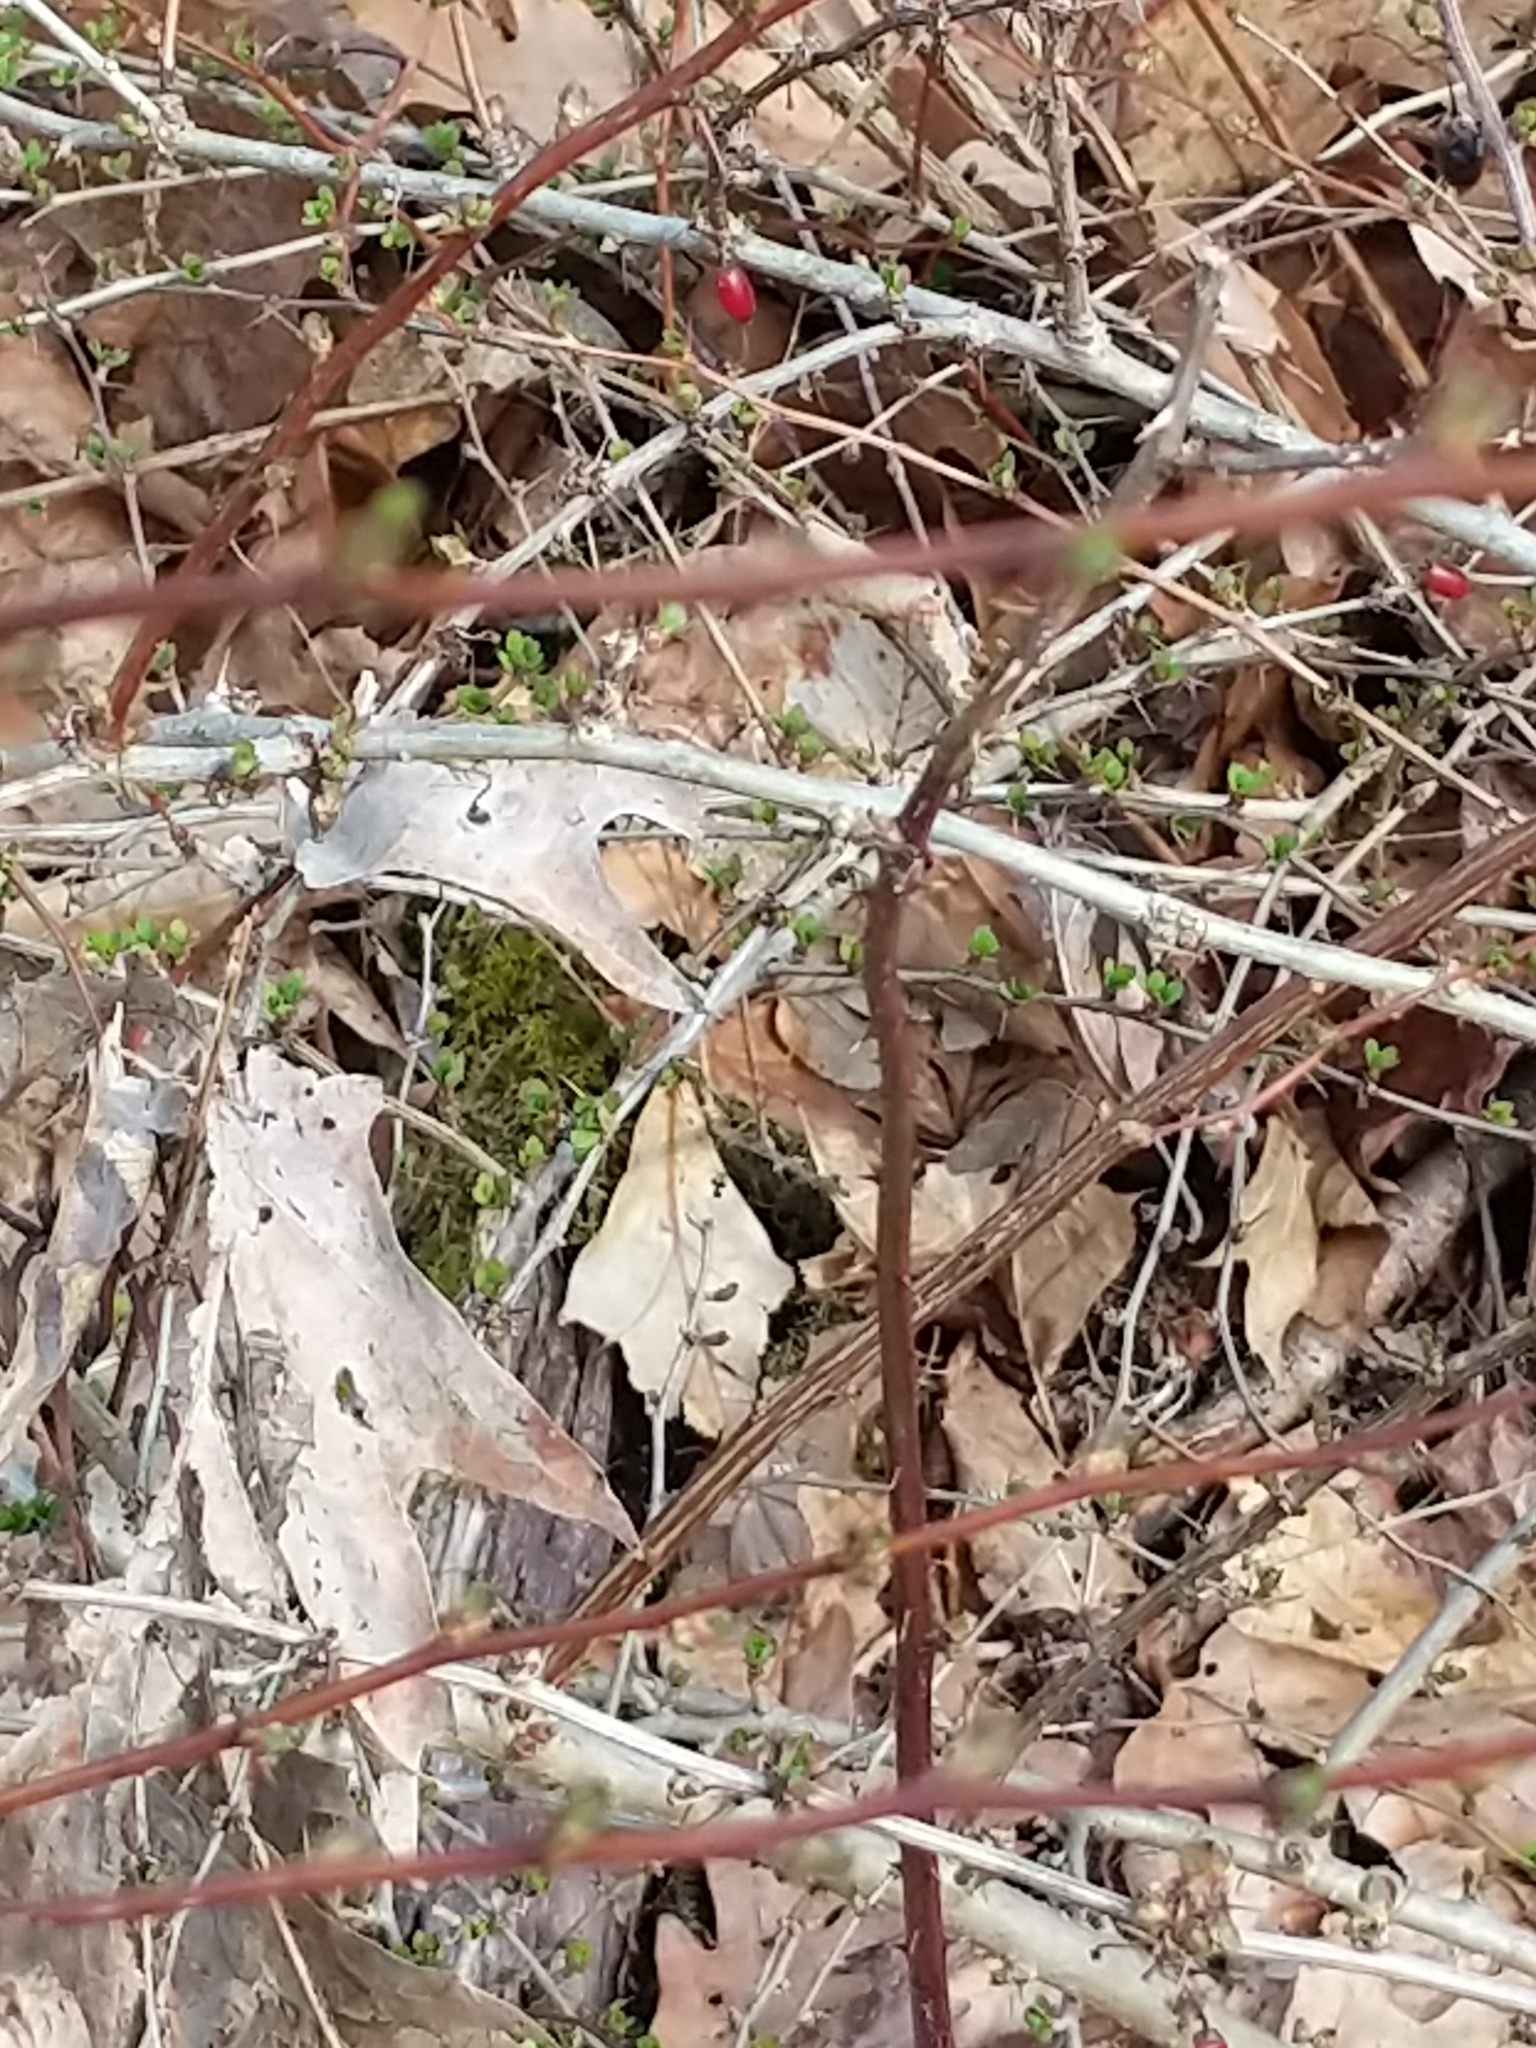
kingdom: Plantae
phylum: Tracheophyta
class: Magnoliopsida
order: Ranunculales
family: Berberidaceae
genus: Berberis
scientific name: Berberis thunbergii
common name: Japanese barberry
